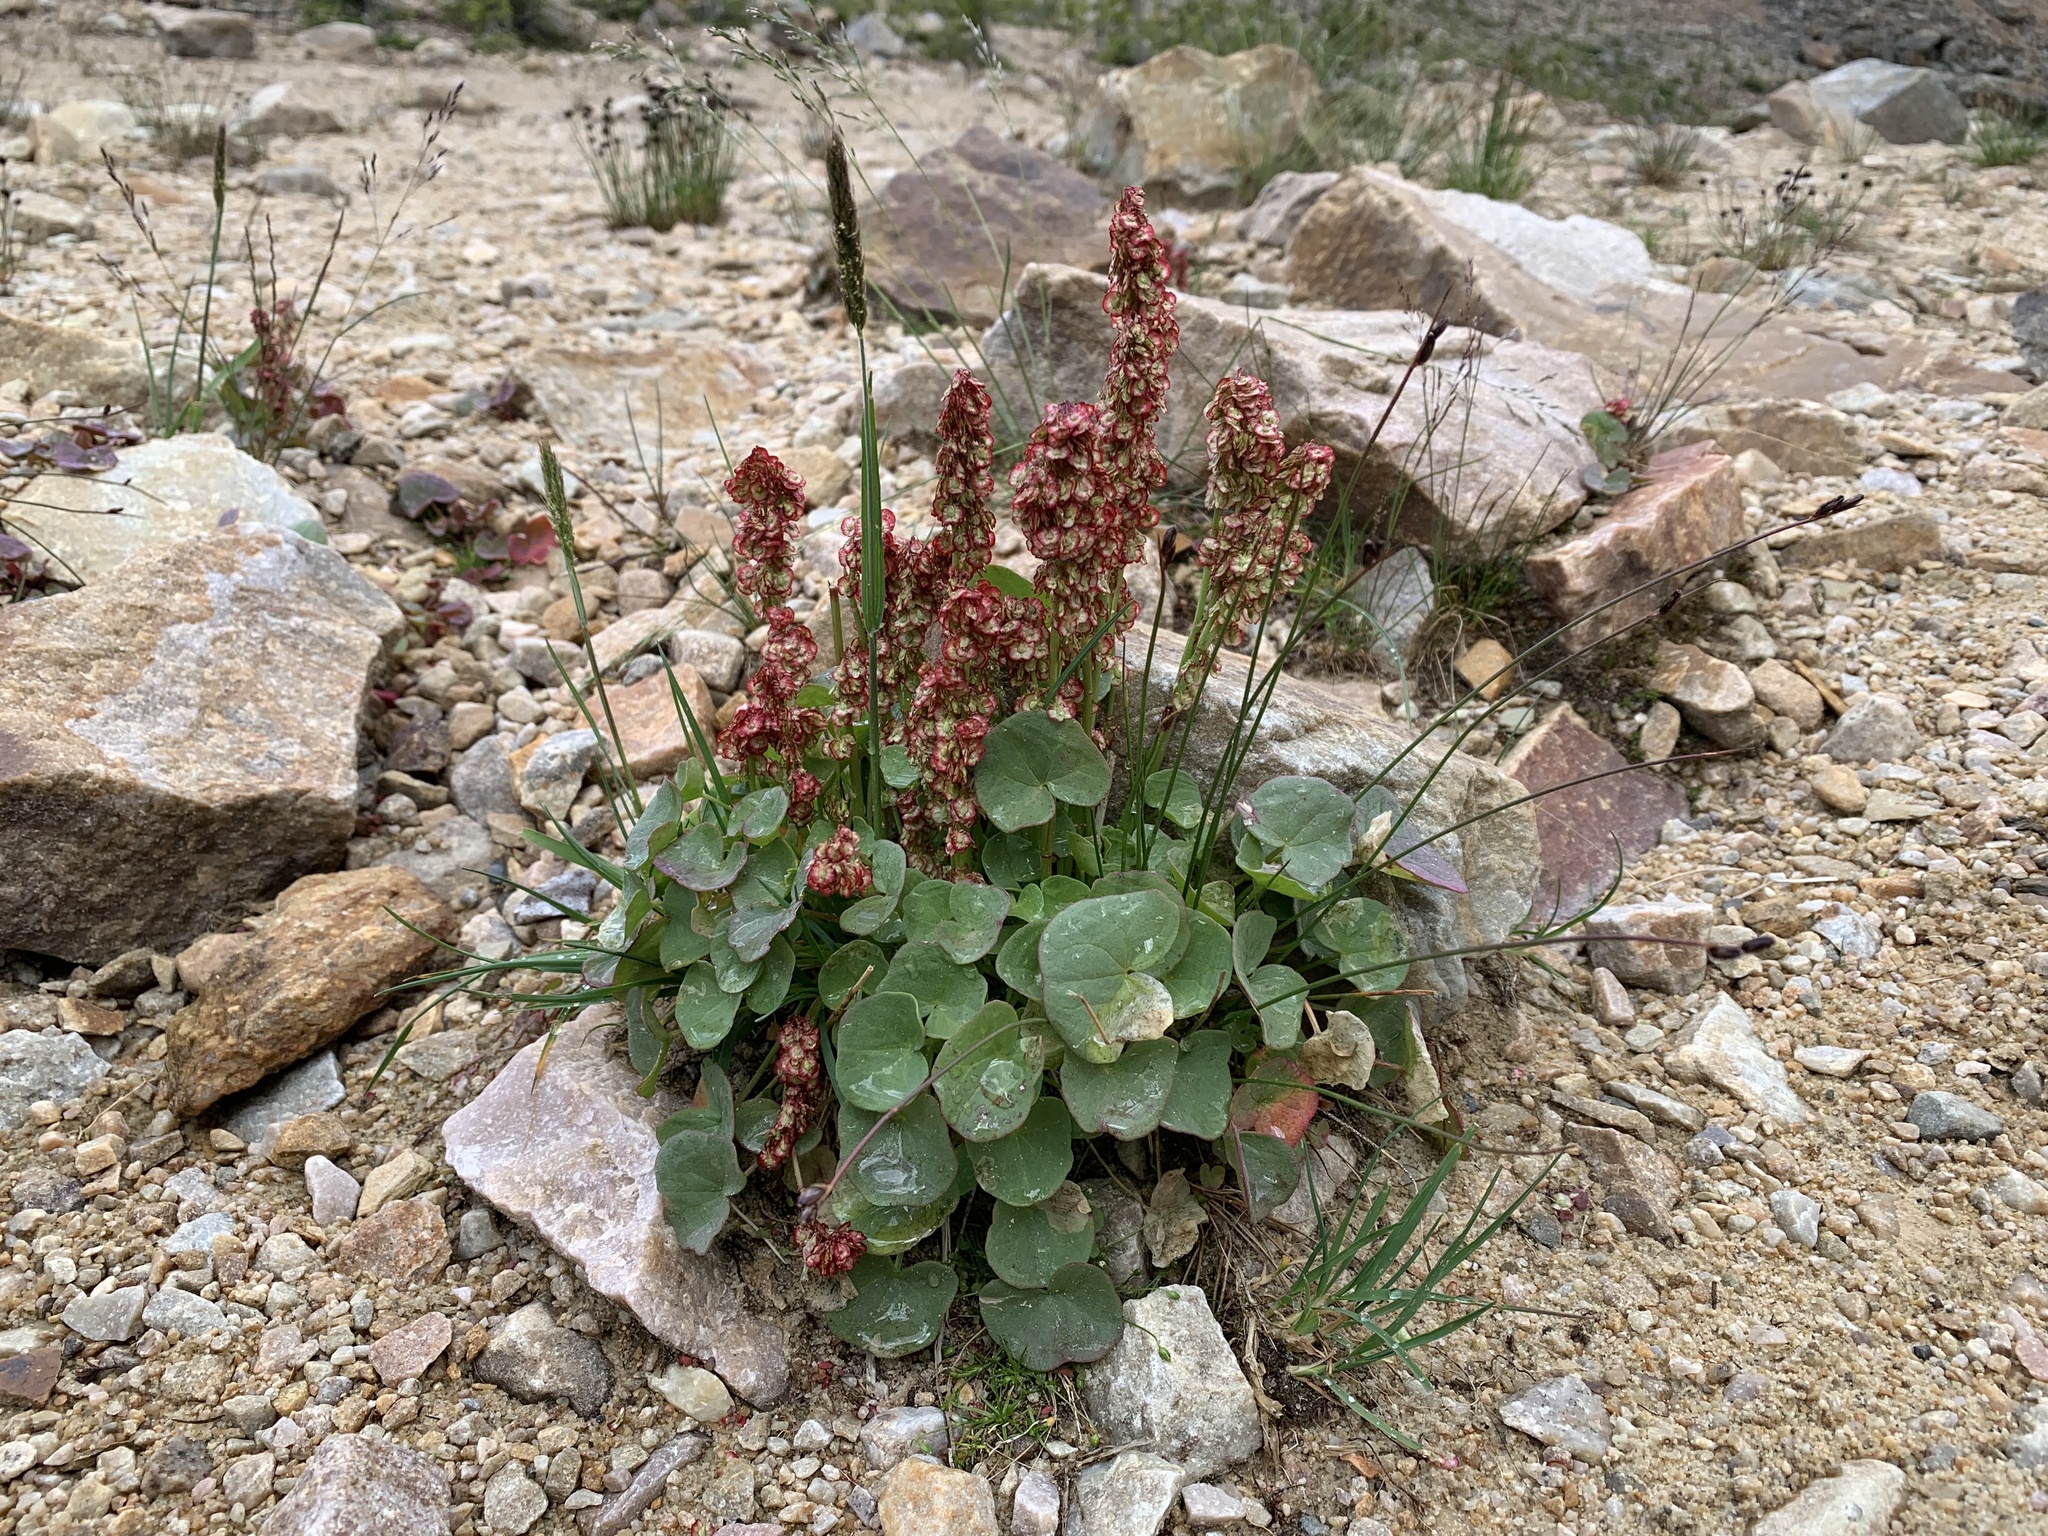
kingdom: Plantae
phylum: Tracheophyta
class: Magnoliopsida
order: Caryophyllales
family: Polygonaceae
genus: Oxyria
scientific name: Oxyria digyna
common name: Alpine mountain-sorrel
